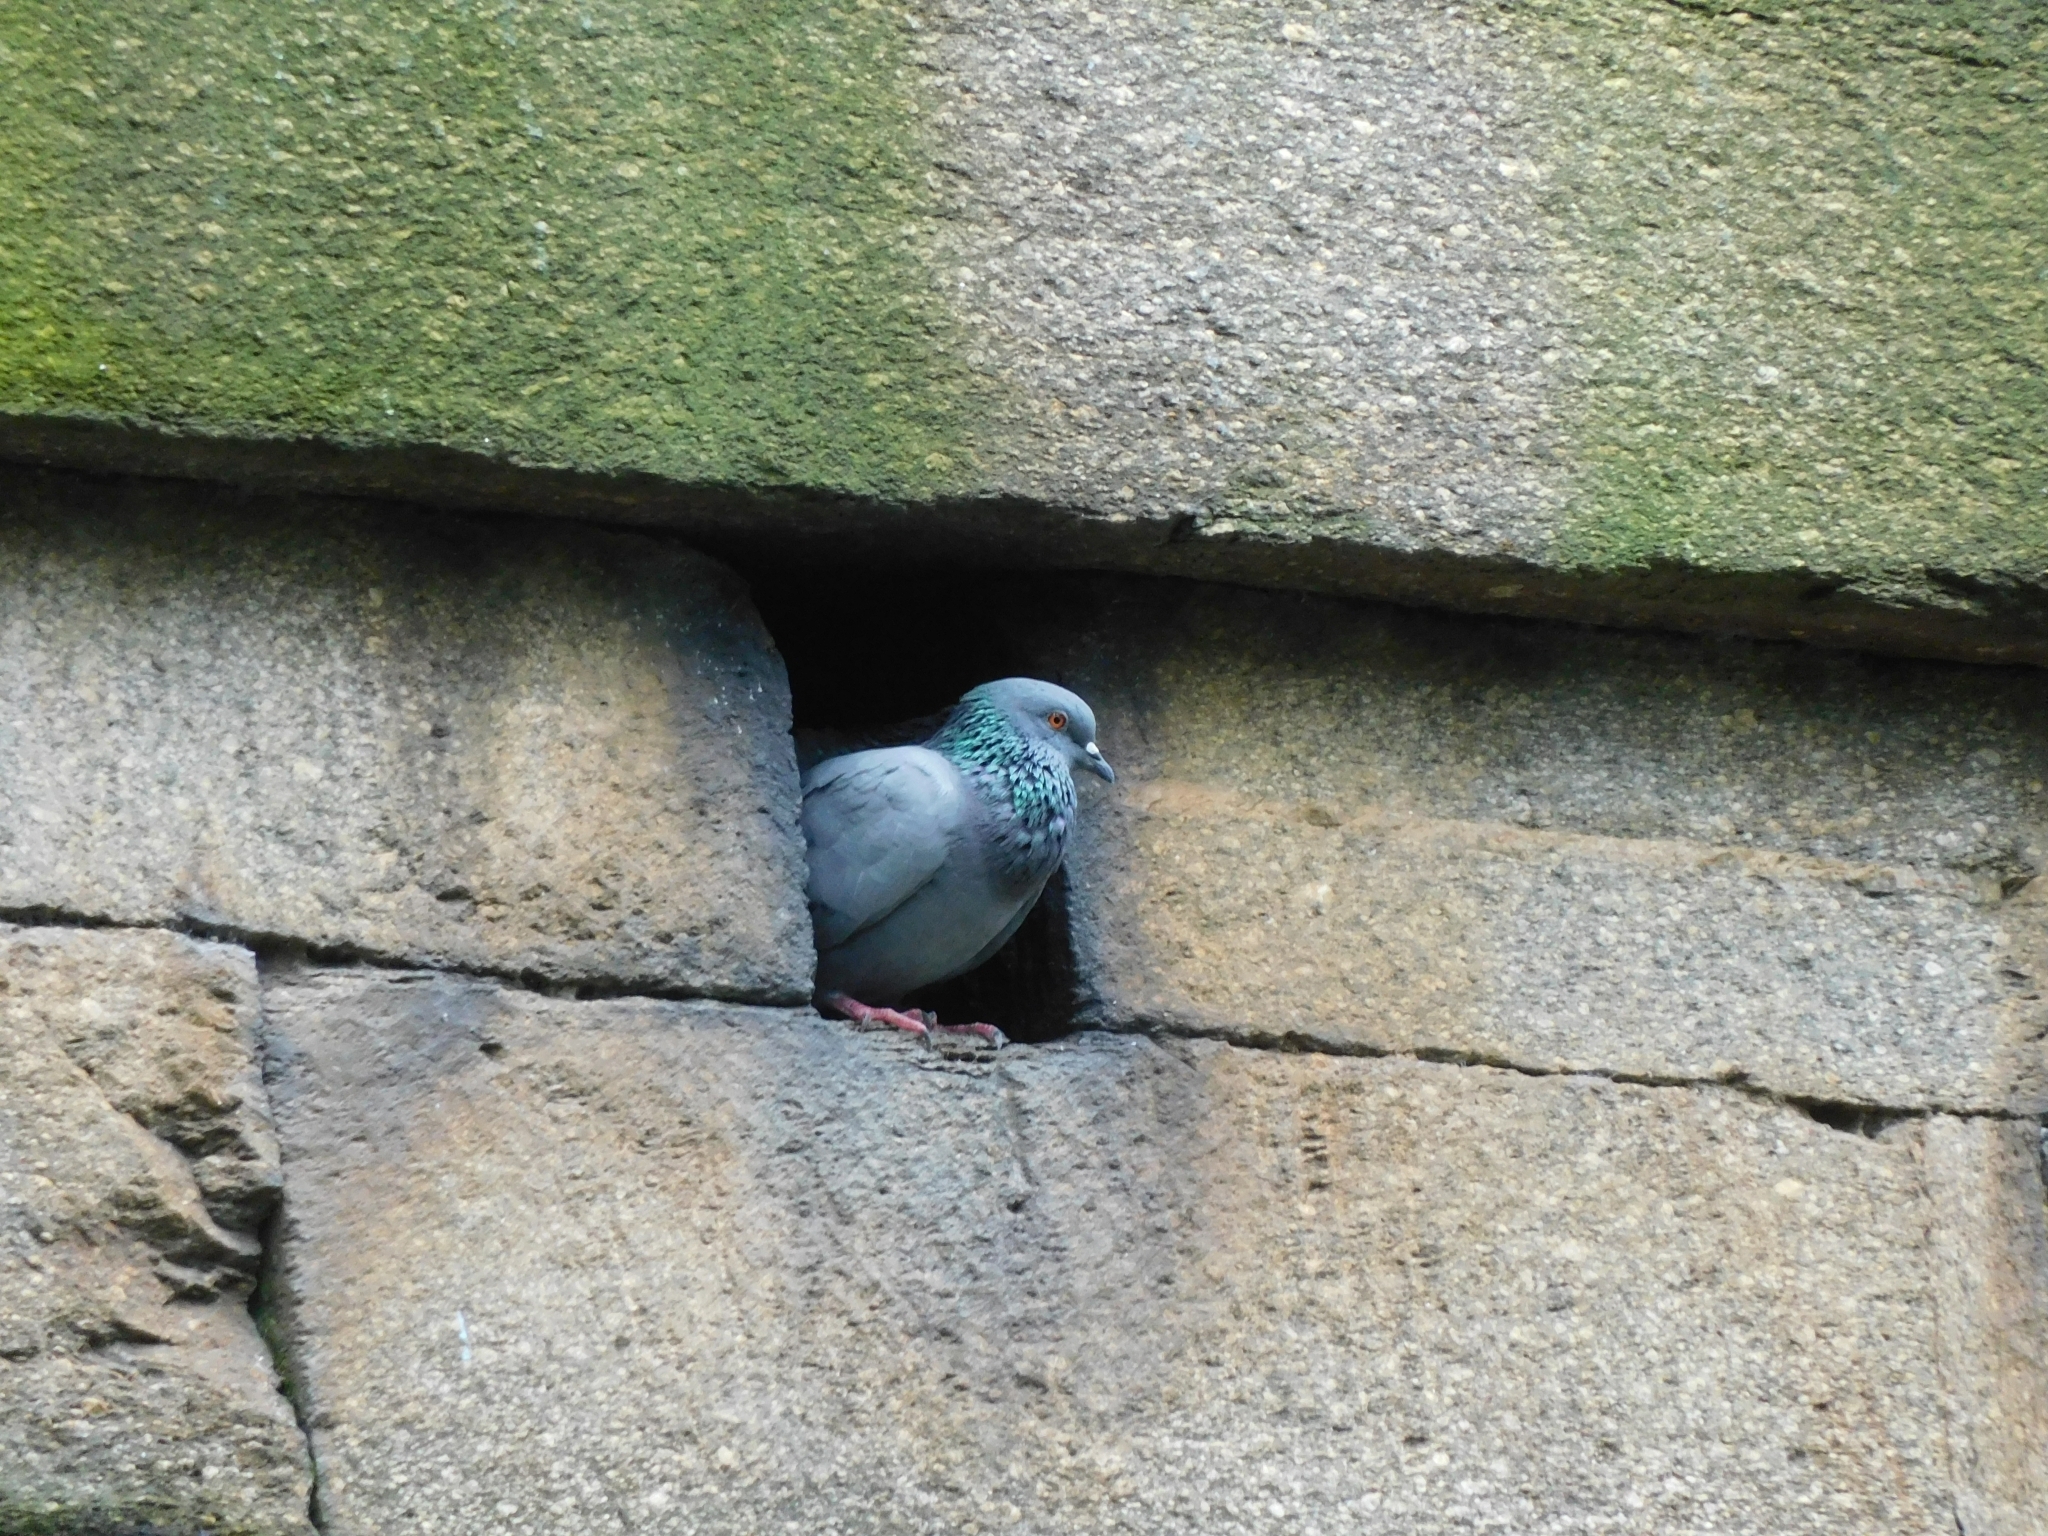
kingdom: Animalia
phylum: Chordata
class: Aves
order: Columbiformes
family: Columbidae
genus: Columba
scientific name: Columba livia
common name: Rock pigeon
